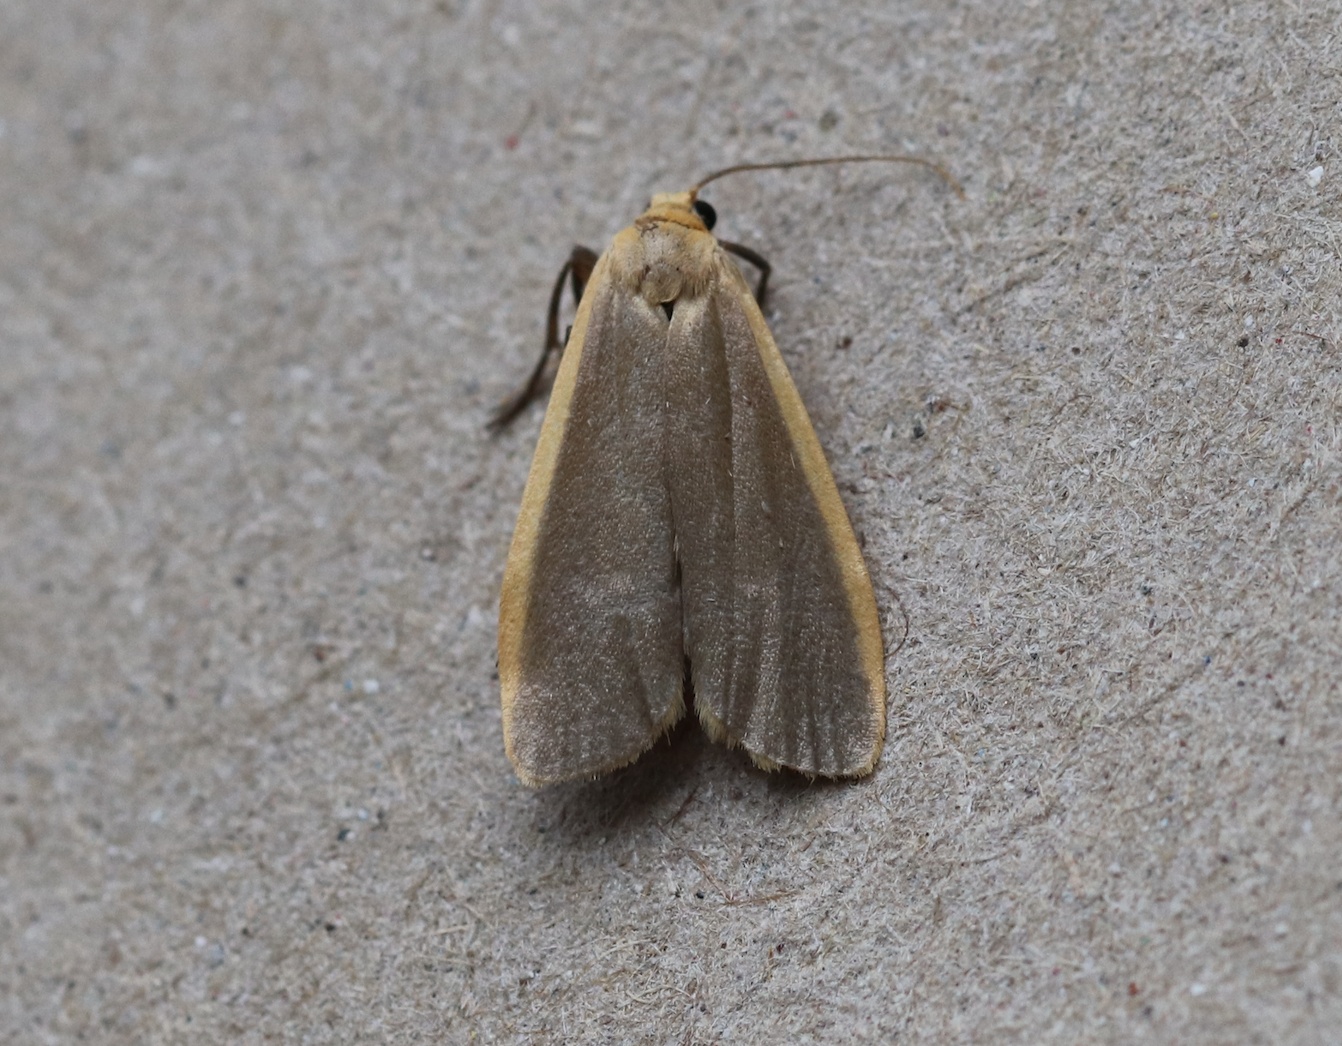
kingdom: Animalia
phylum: Arthropoda
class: Insecta
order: Lepidoptera
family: Erebidae
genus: Katha
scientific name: Katha depressa
